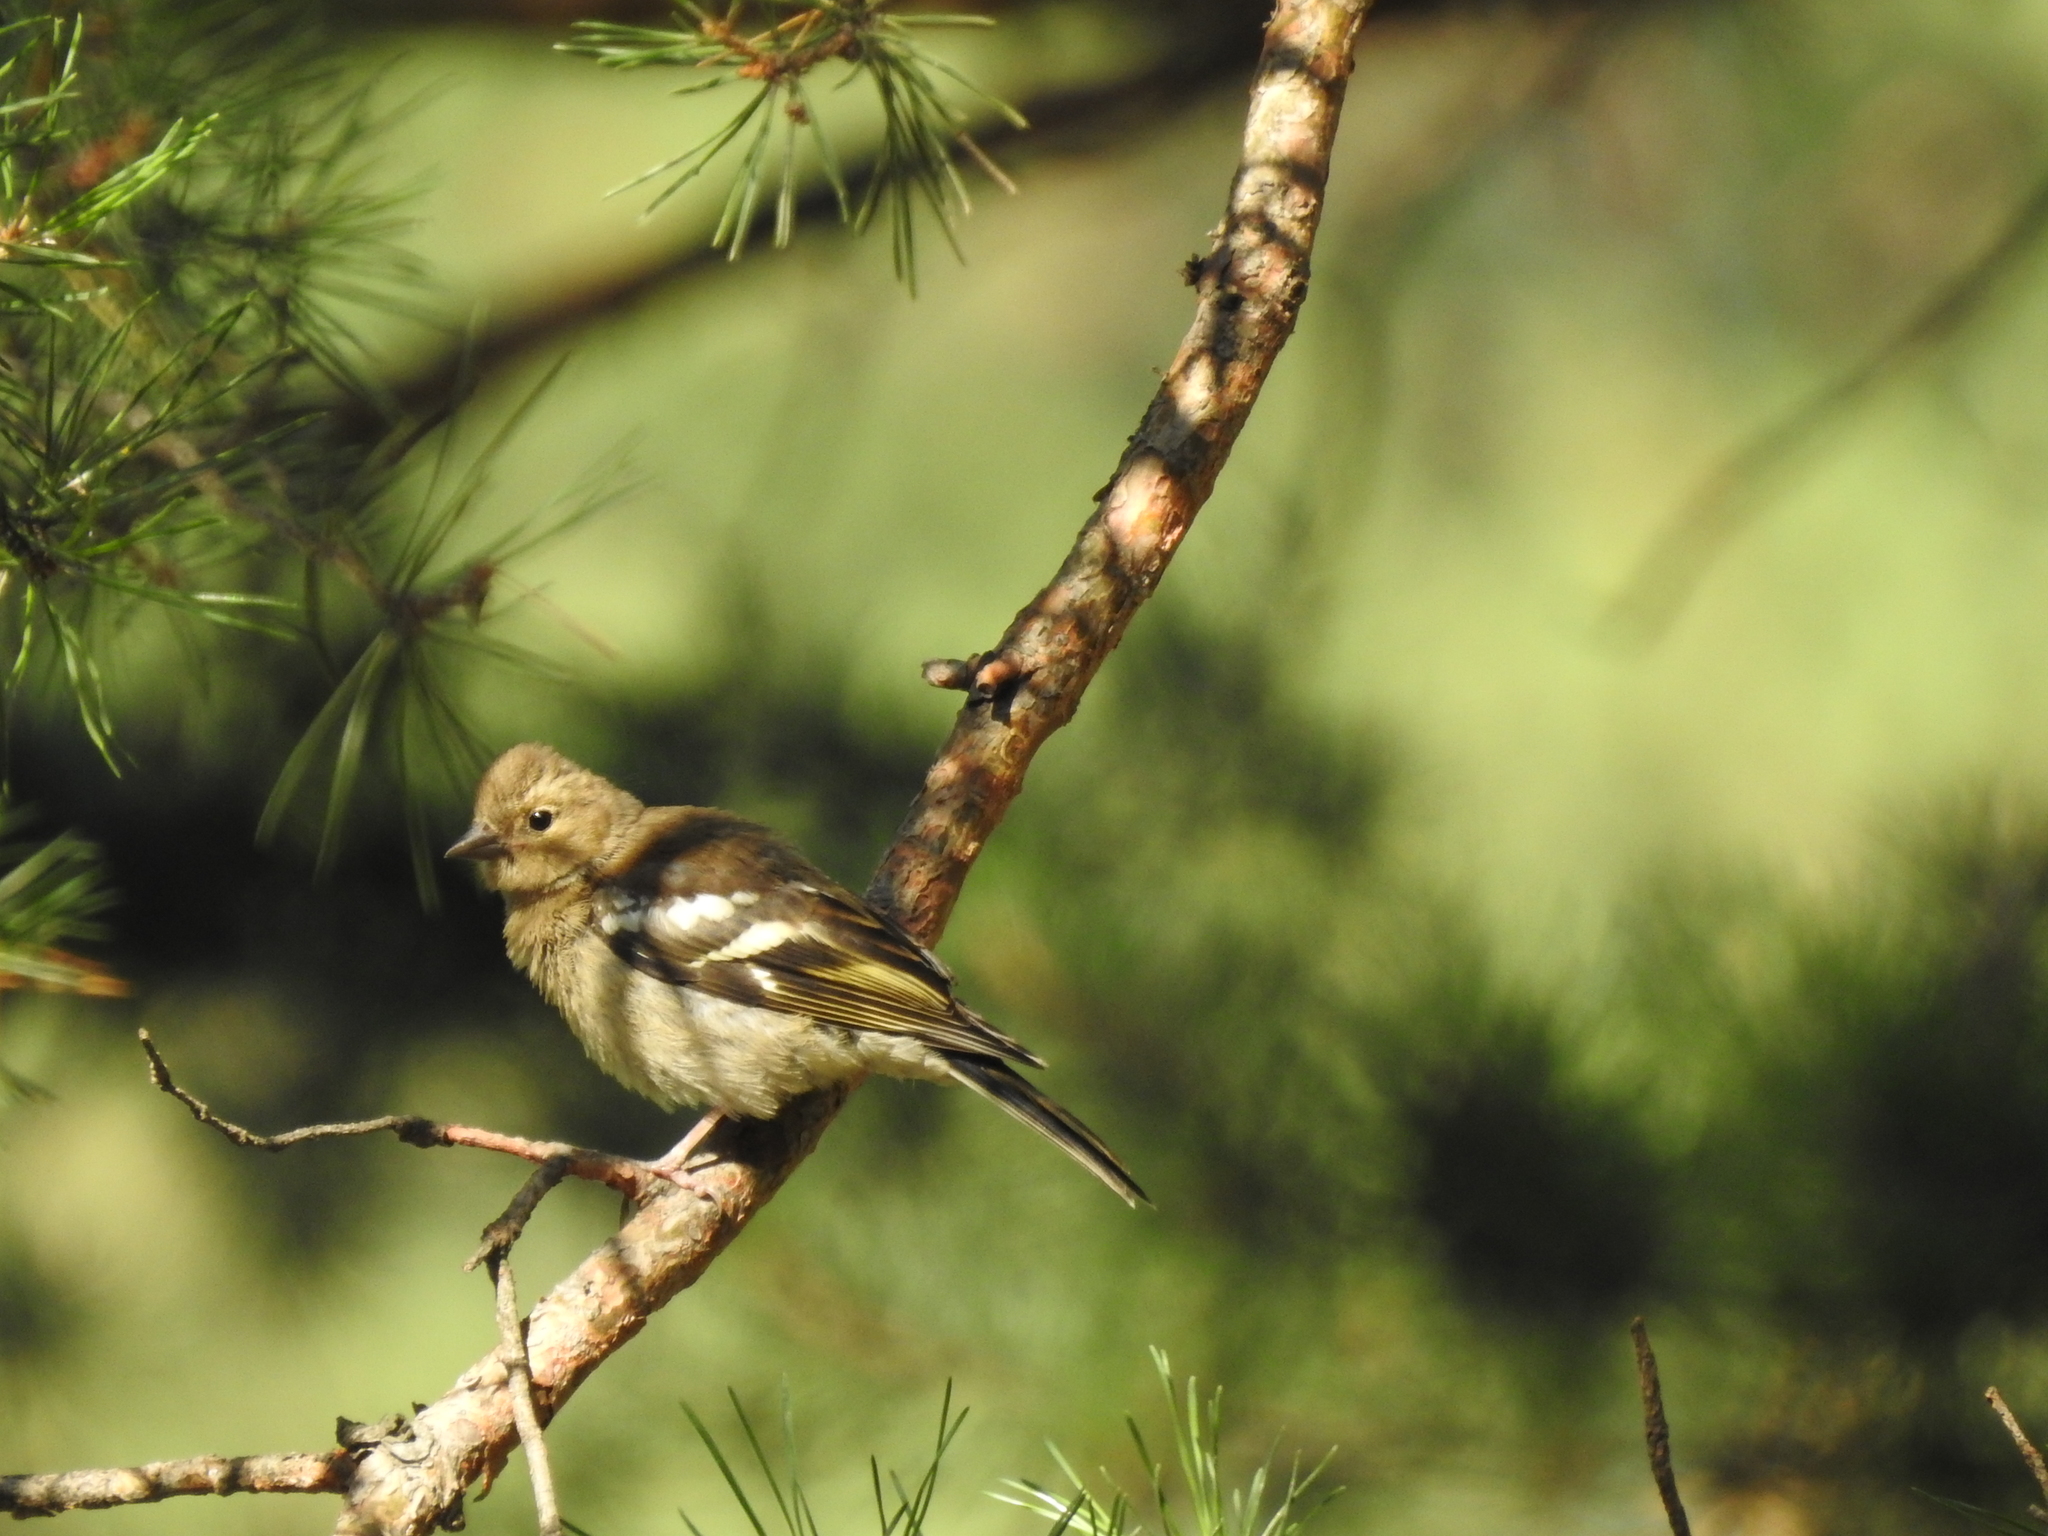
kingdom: Animalia
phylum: Chordata
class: Aves
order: Passeriformes
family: Fringillidae
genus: Fringilla
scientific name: Fringilla coelebs
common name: Common chaffinch
